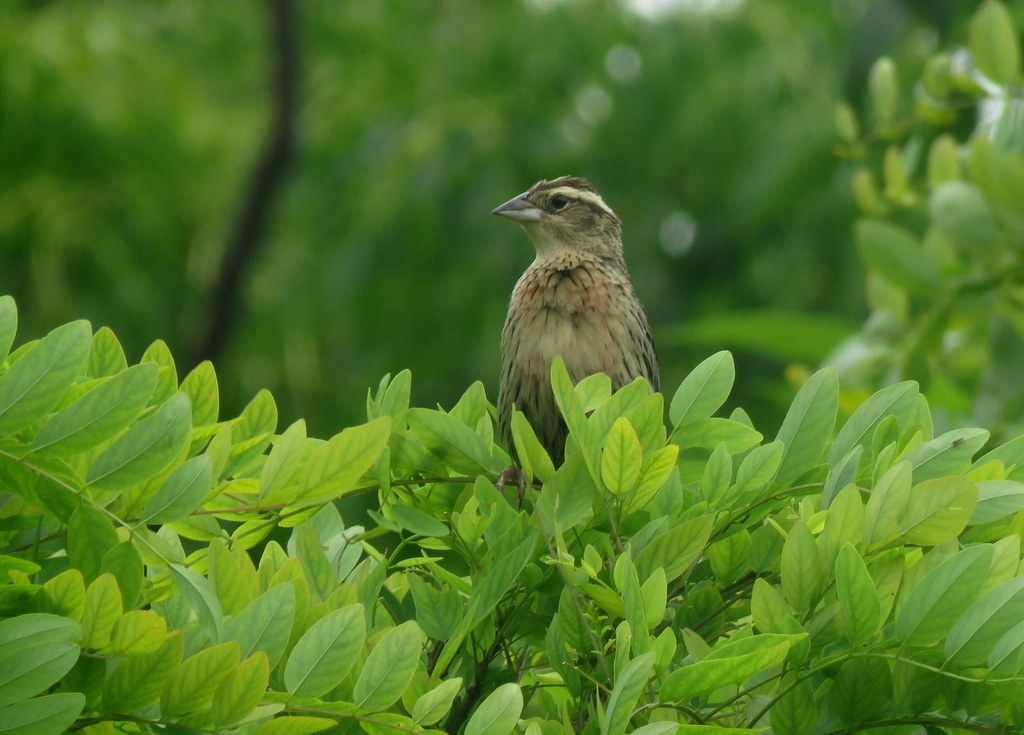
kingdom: Animalia
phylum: Chordata
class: Aves
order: Passeriformes
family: Icteridae
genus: Sturnella
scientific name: Sturnella superciliaris
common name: White-browed blackbird
